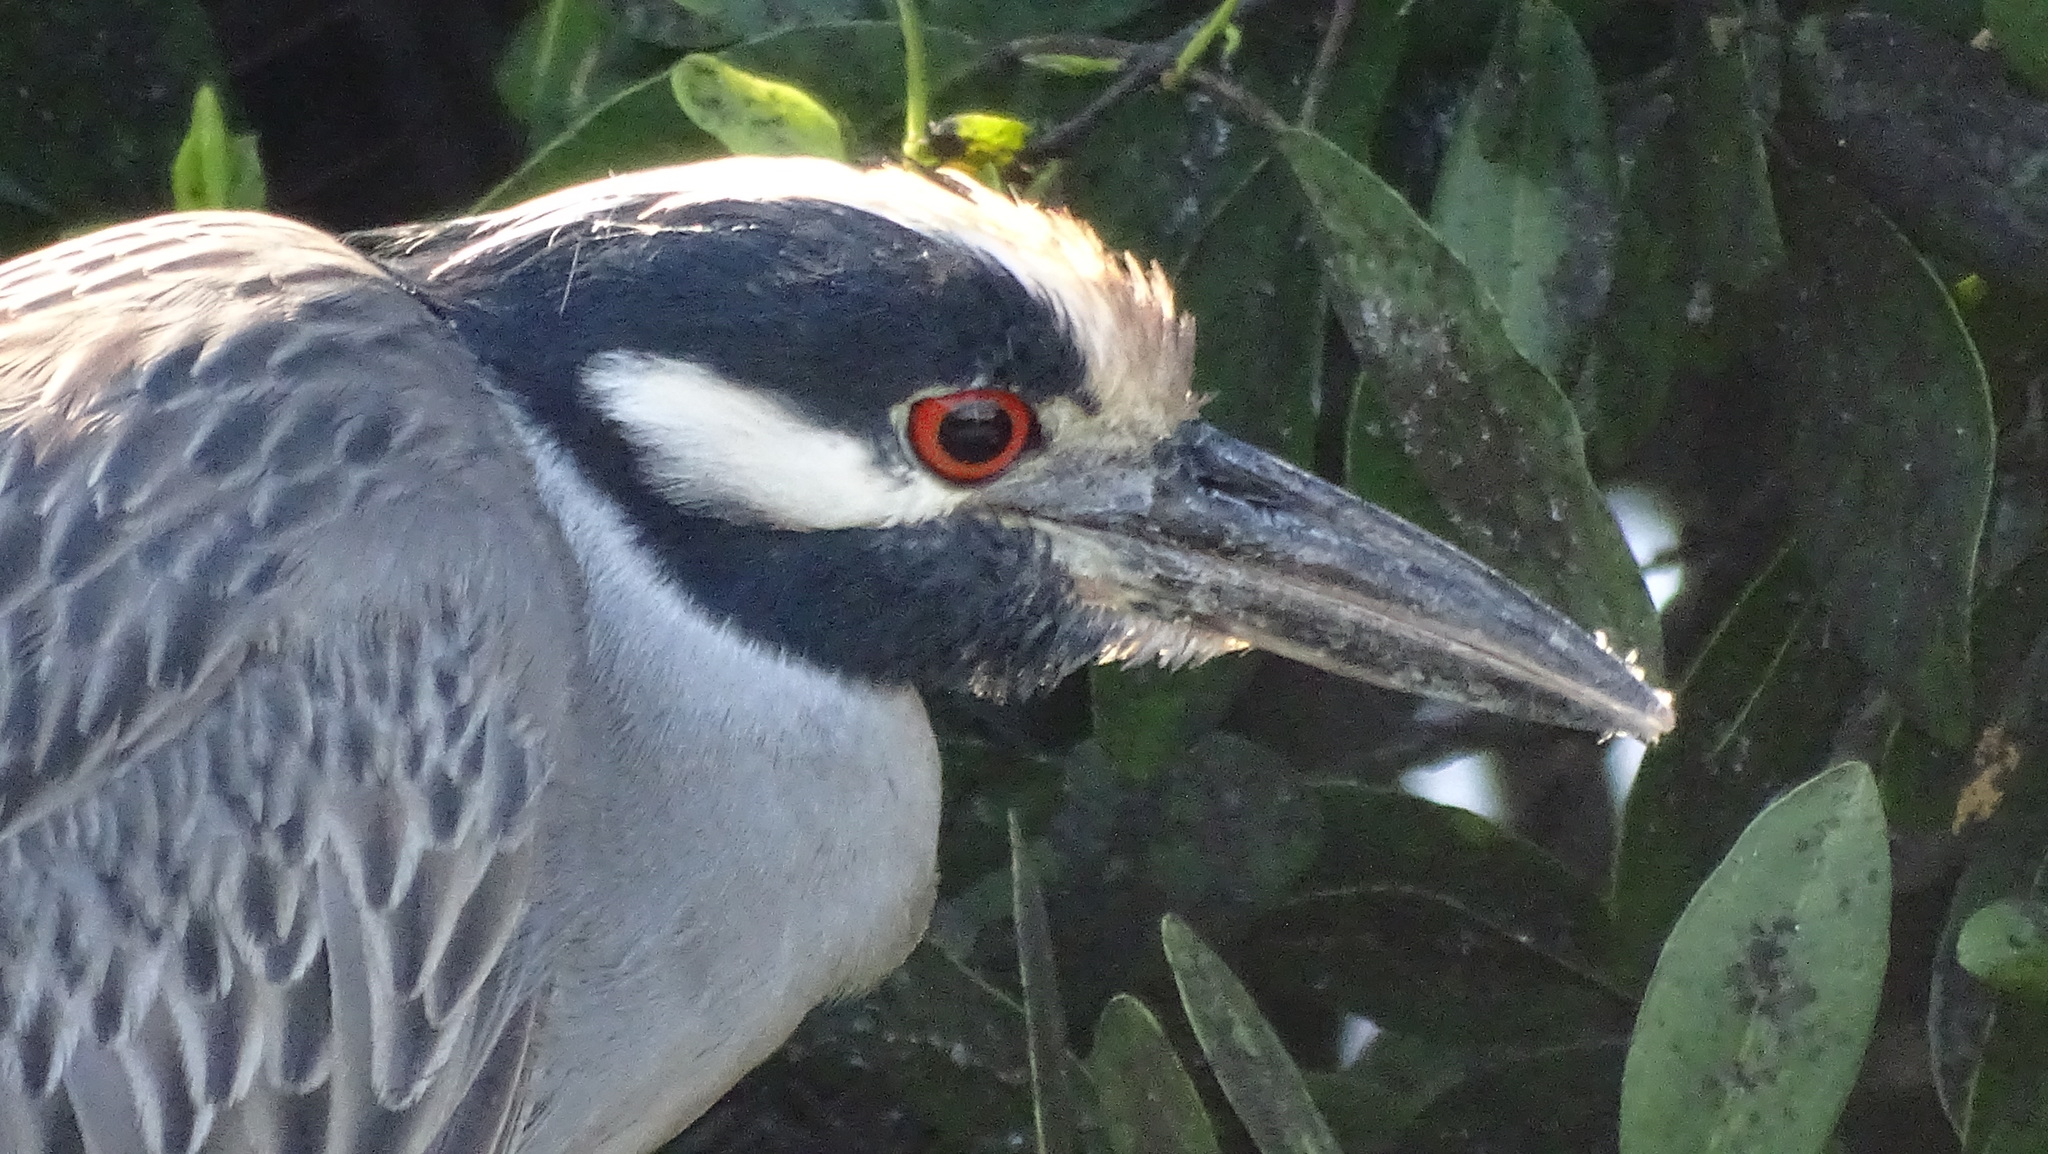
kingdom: Animalia
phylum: Chordata
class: Aves
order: Pelecaniformes
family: Ardeidae
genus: Nyctanassa
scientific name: Nyctanassa violacea
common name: Yellow-crowned night heron
